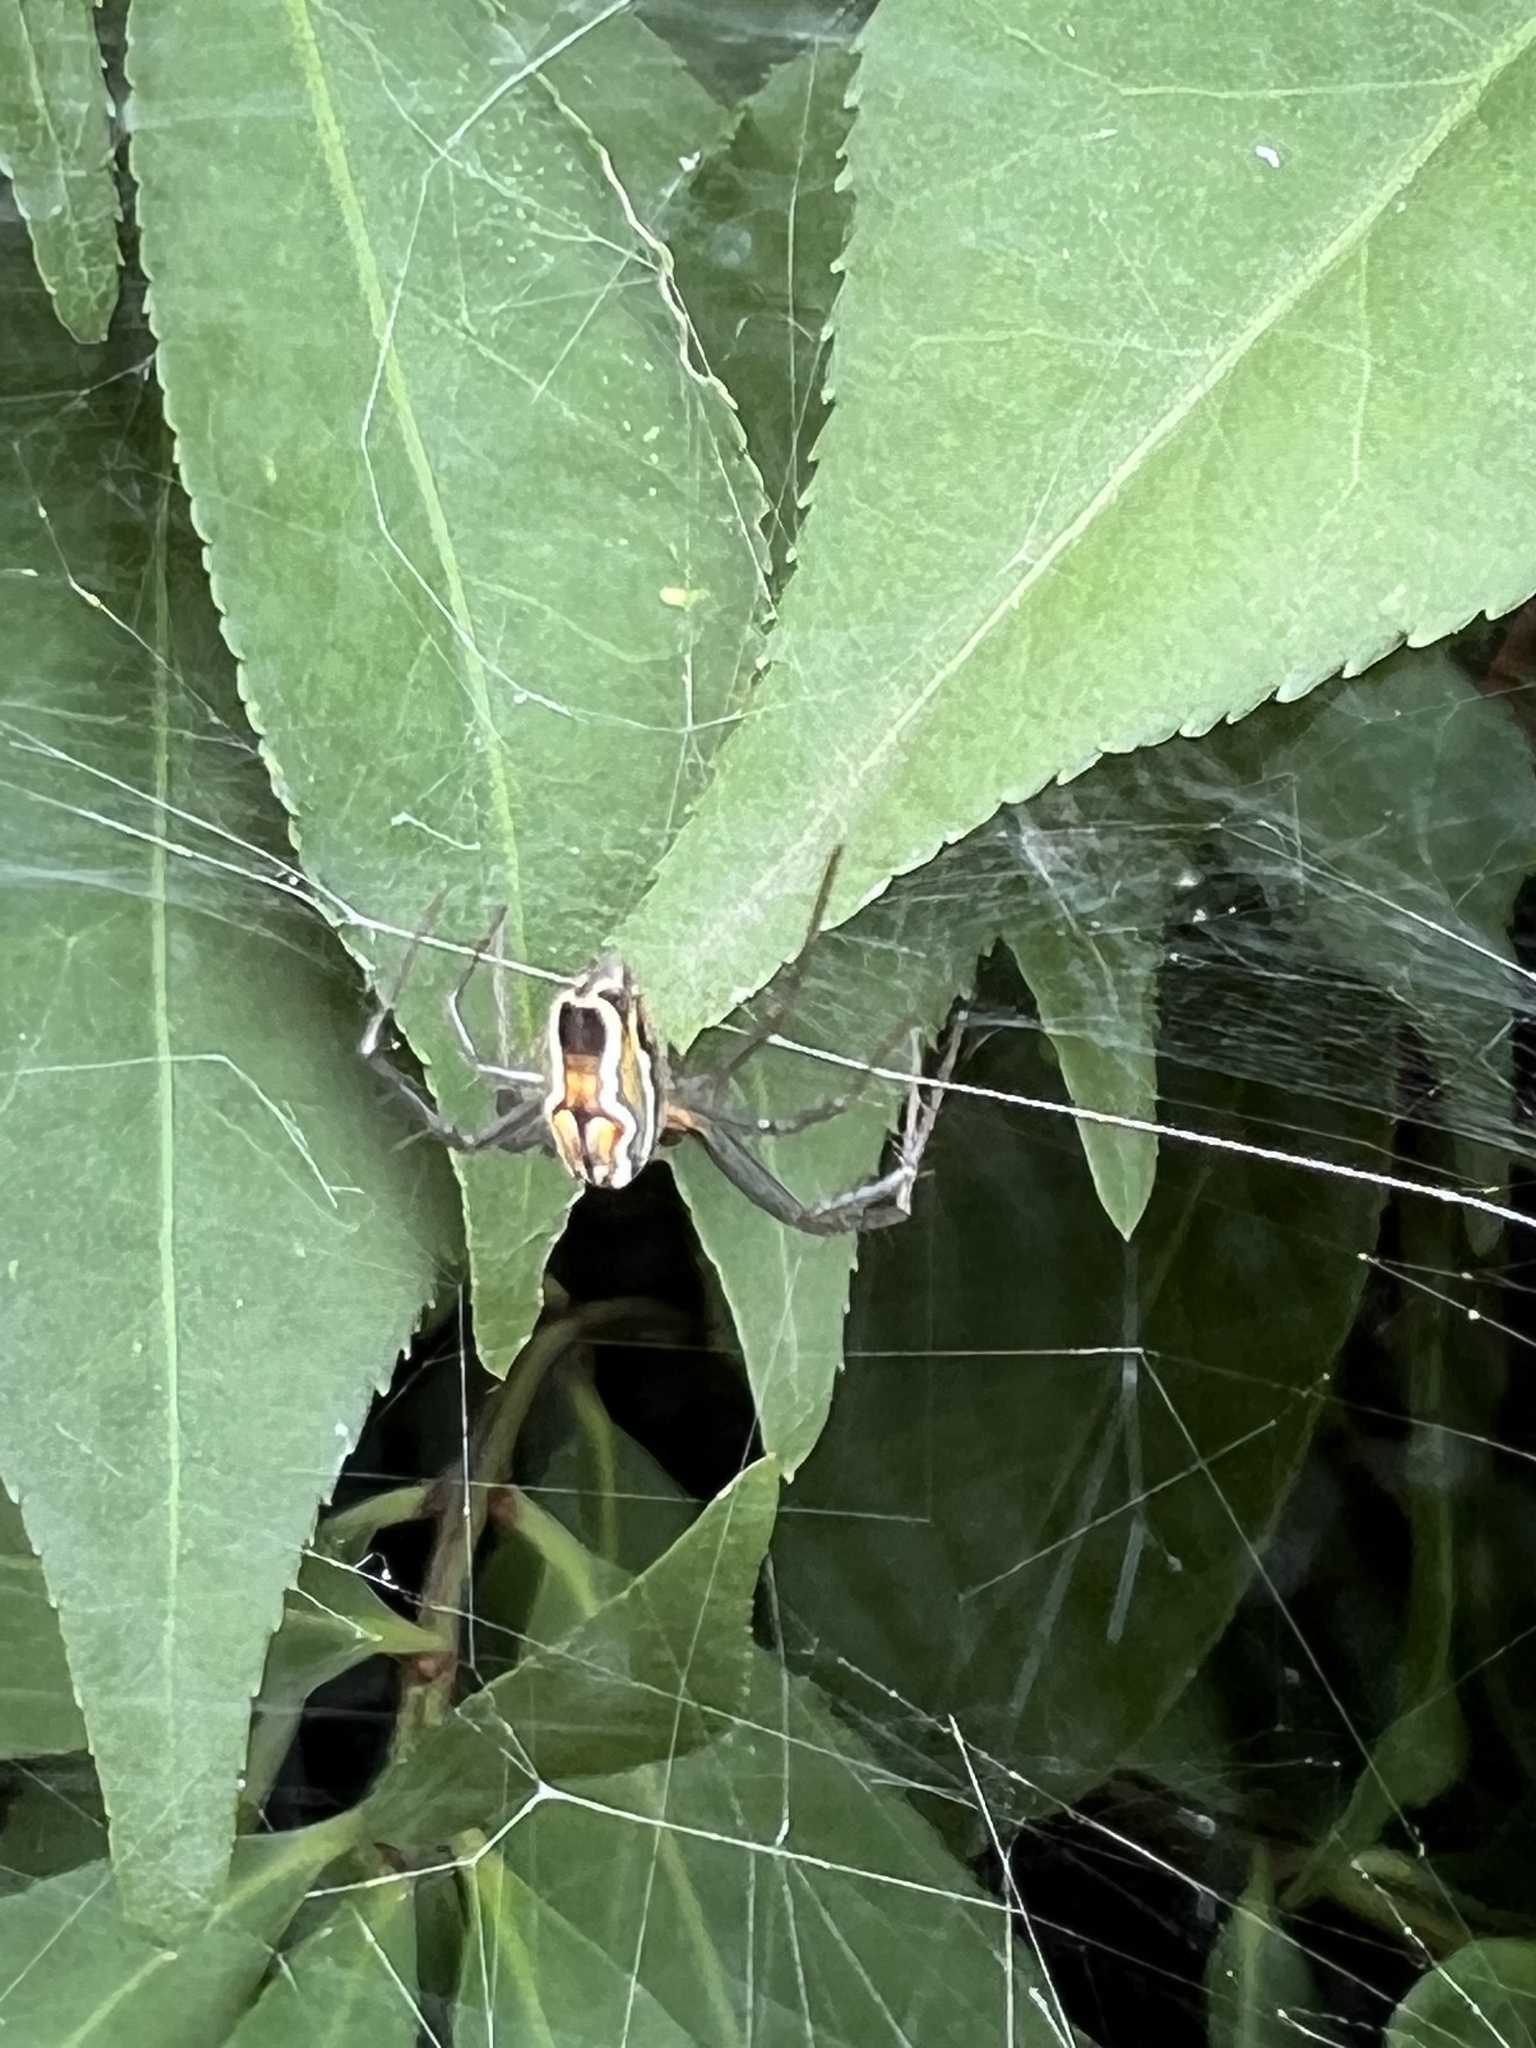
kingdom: Animalia
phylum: Arthropoda
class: Arachnida
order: Araneae
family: Araneidae
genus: Mecynogea
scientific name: Mecynogea lemniscata
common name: Orb weavers
